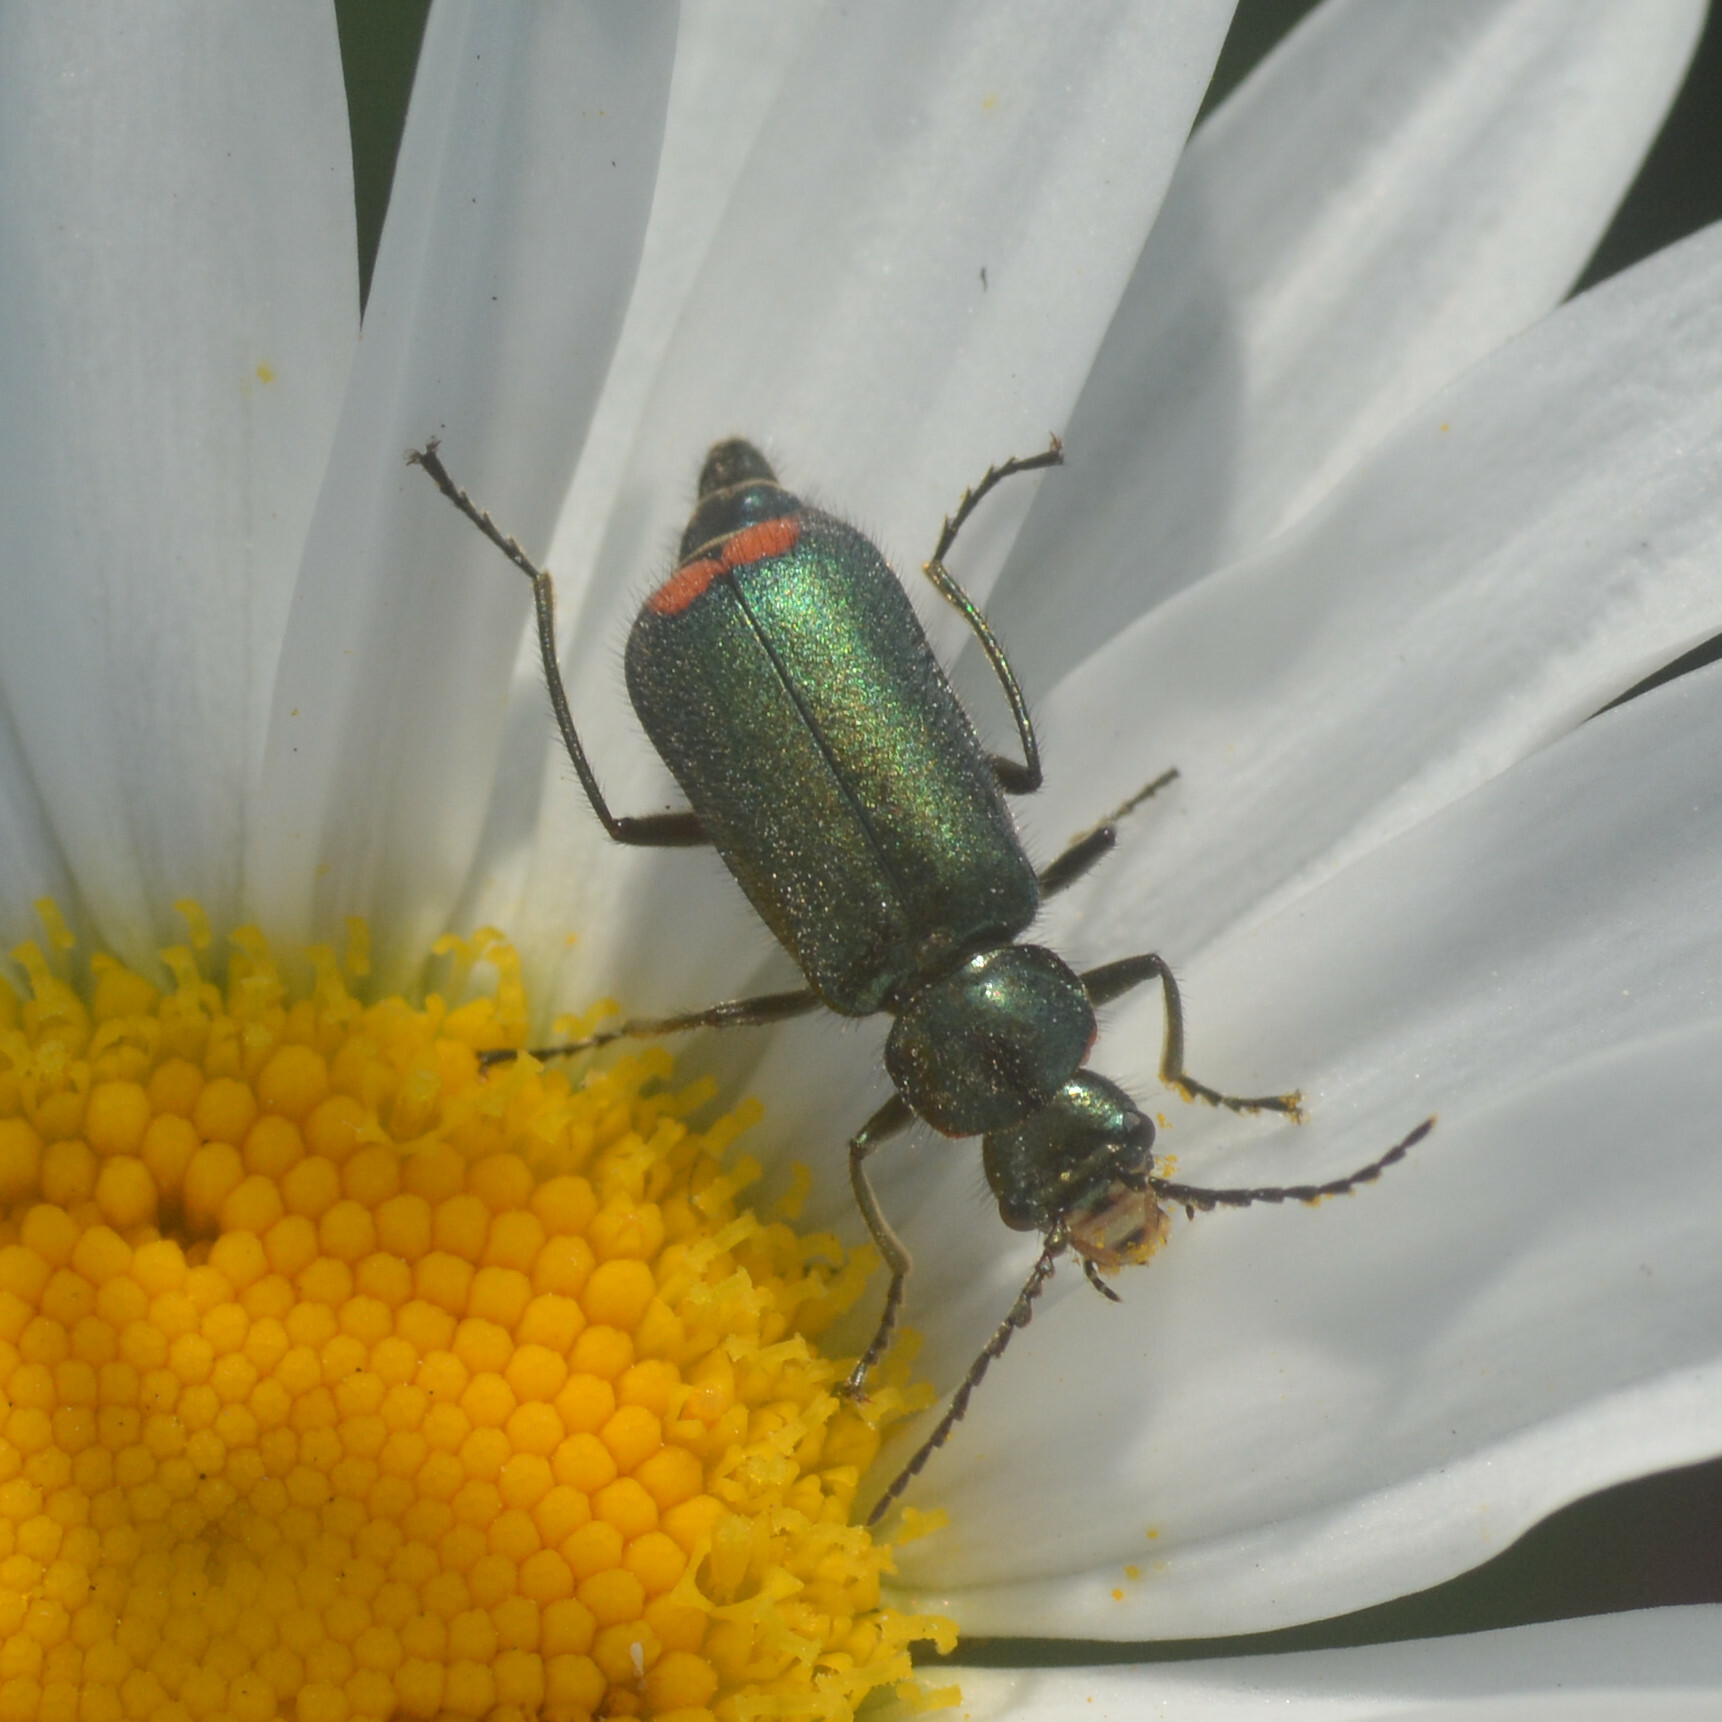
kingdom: Animalia
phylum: Arthropoda
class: Insecta
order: Coleoptera
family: Melyridae
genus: Malachius
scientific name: Malachius bipustulatus
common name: Malachite beetle
